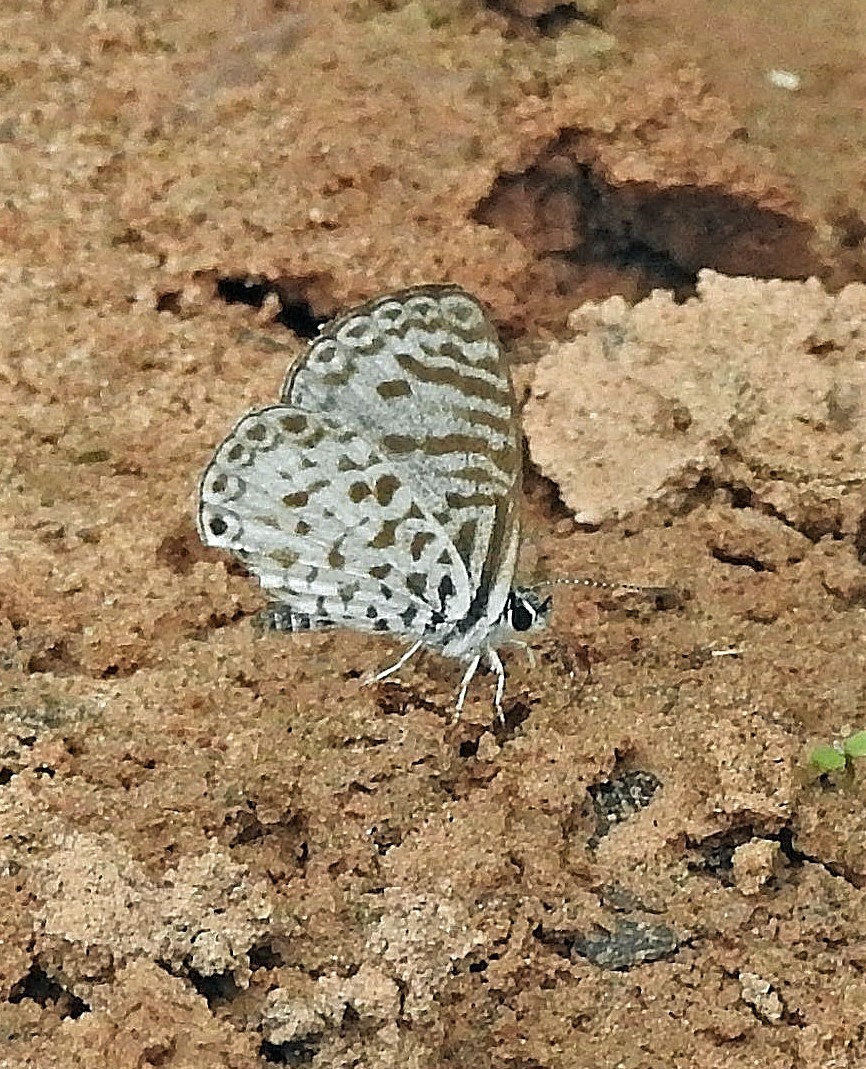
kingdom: Animalia
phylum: Arthropoda
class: Insecta
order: Lepidoptera
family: Lycaenidae
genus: Leptotes
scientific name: Leptotes cassius
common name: Cassius blue
